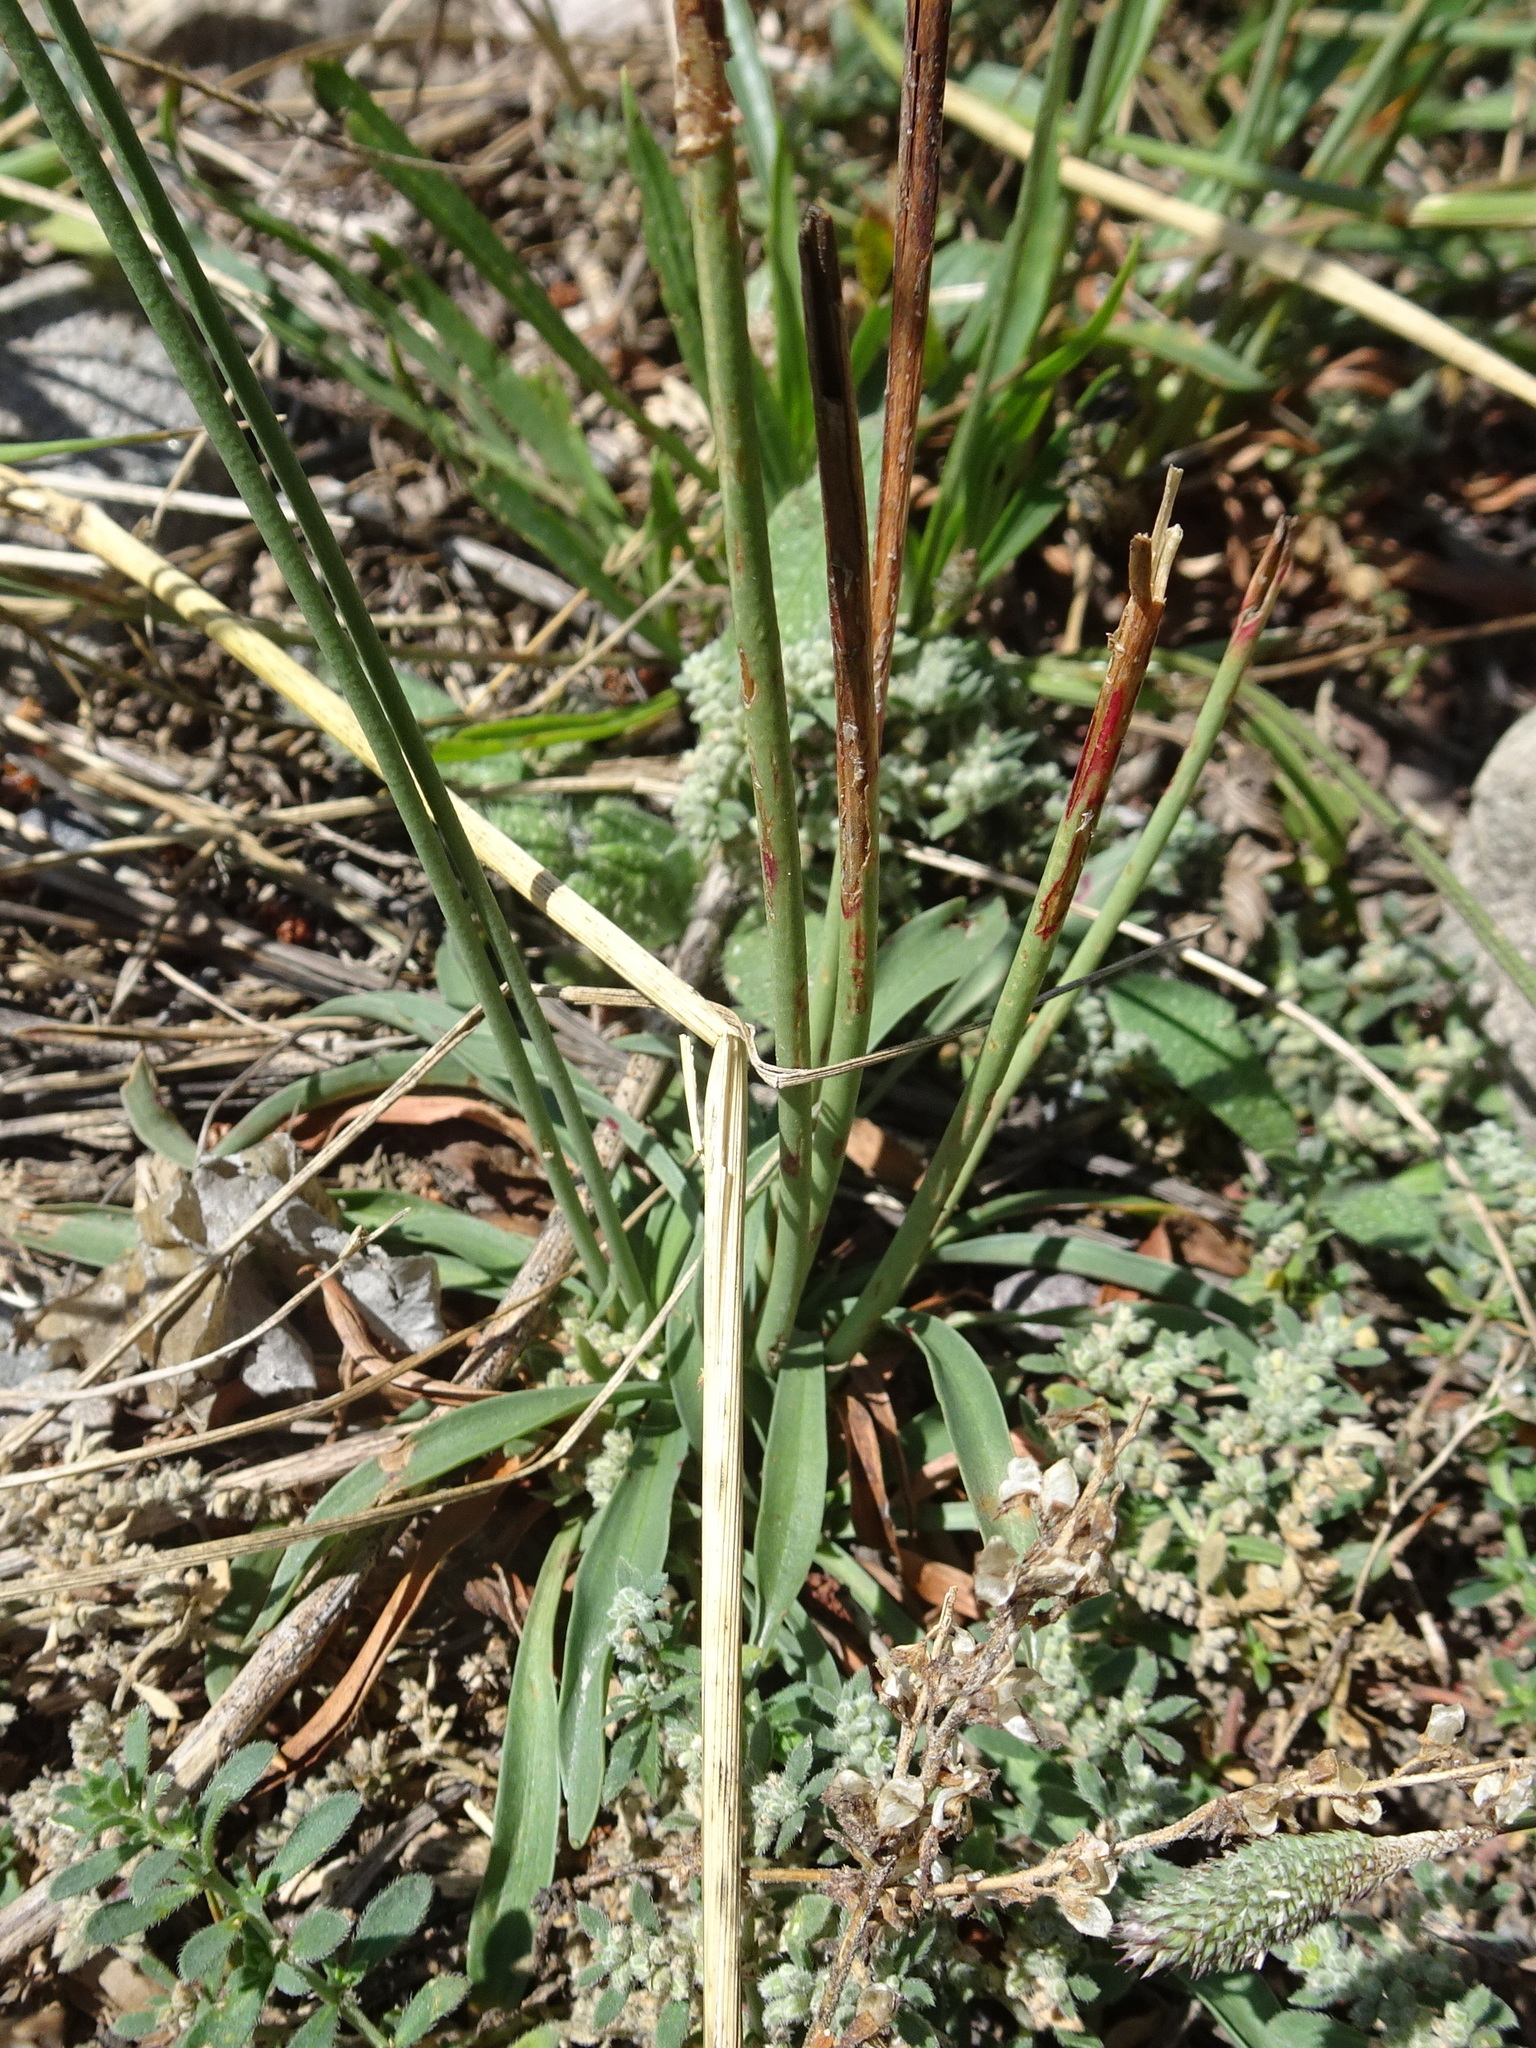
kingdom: Plantae
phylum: Tracheophyta
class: Magnoliopsida
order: Caryophyllales
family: Plumbaginaceae
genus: Armeria
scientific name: Armeria alpina
